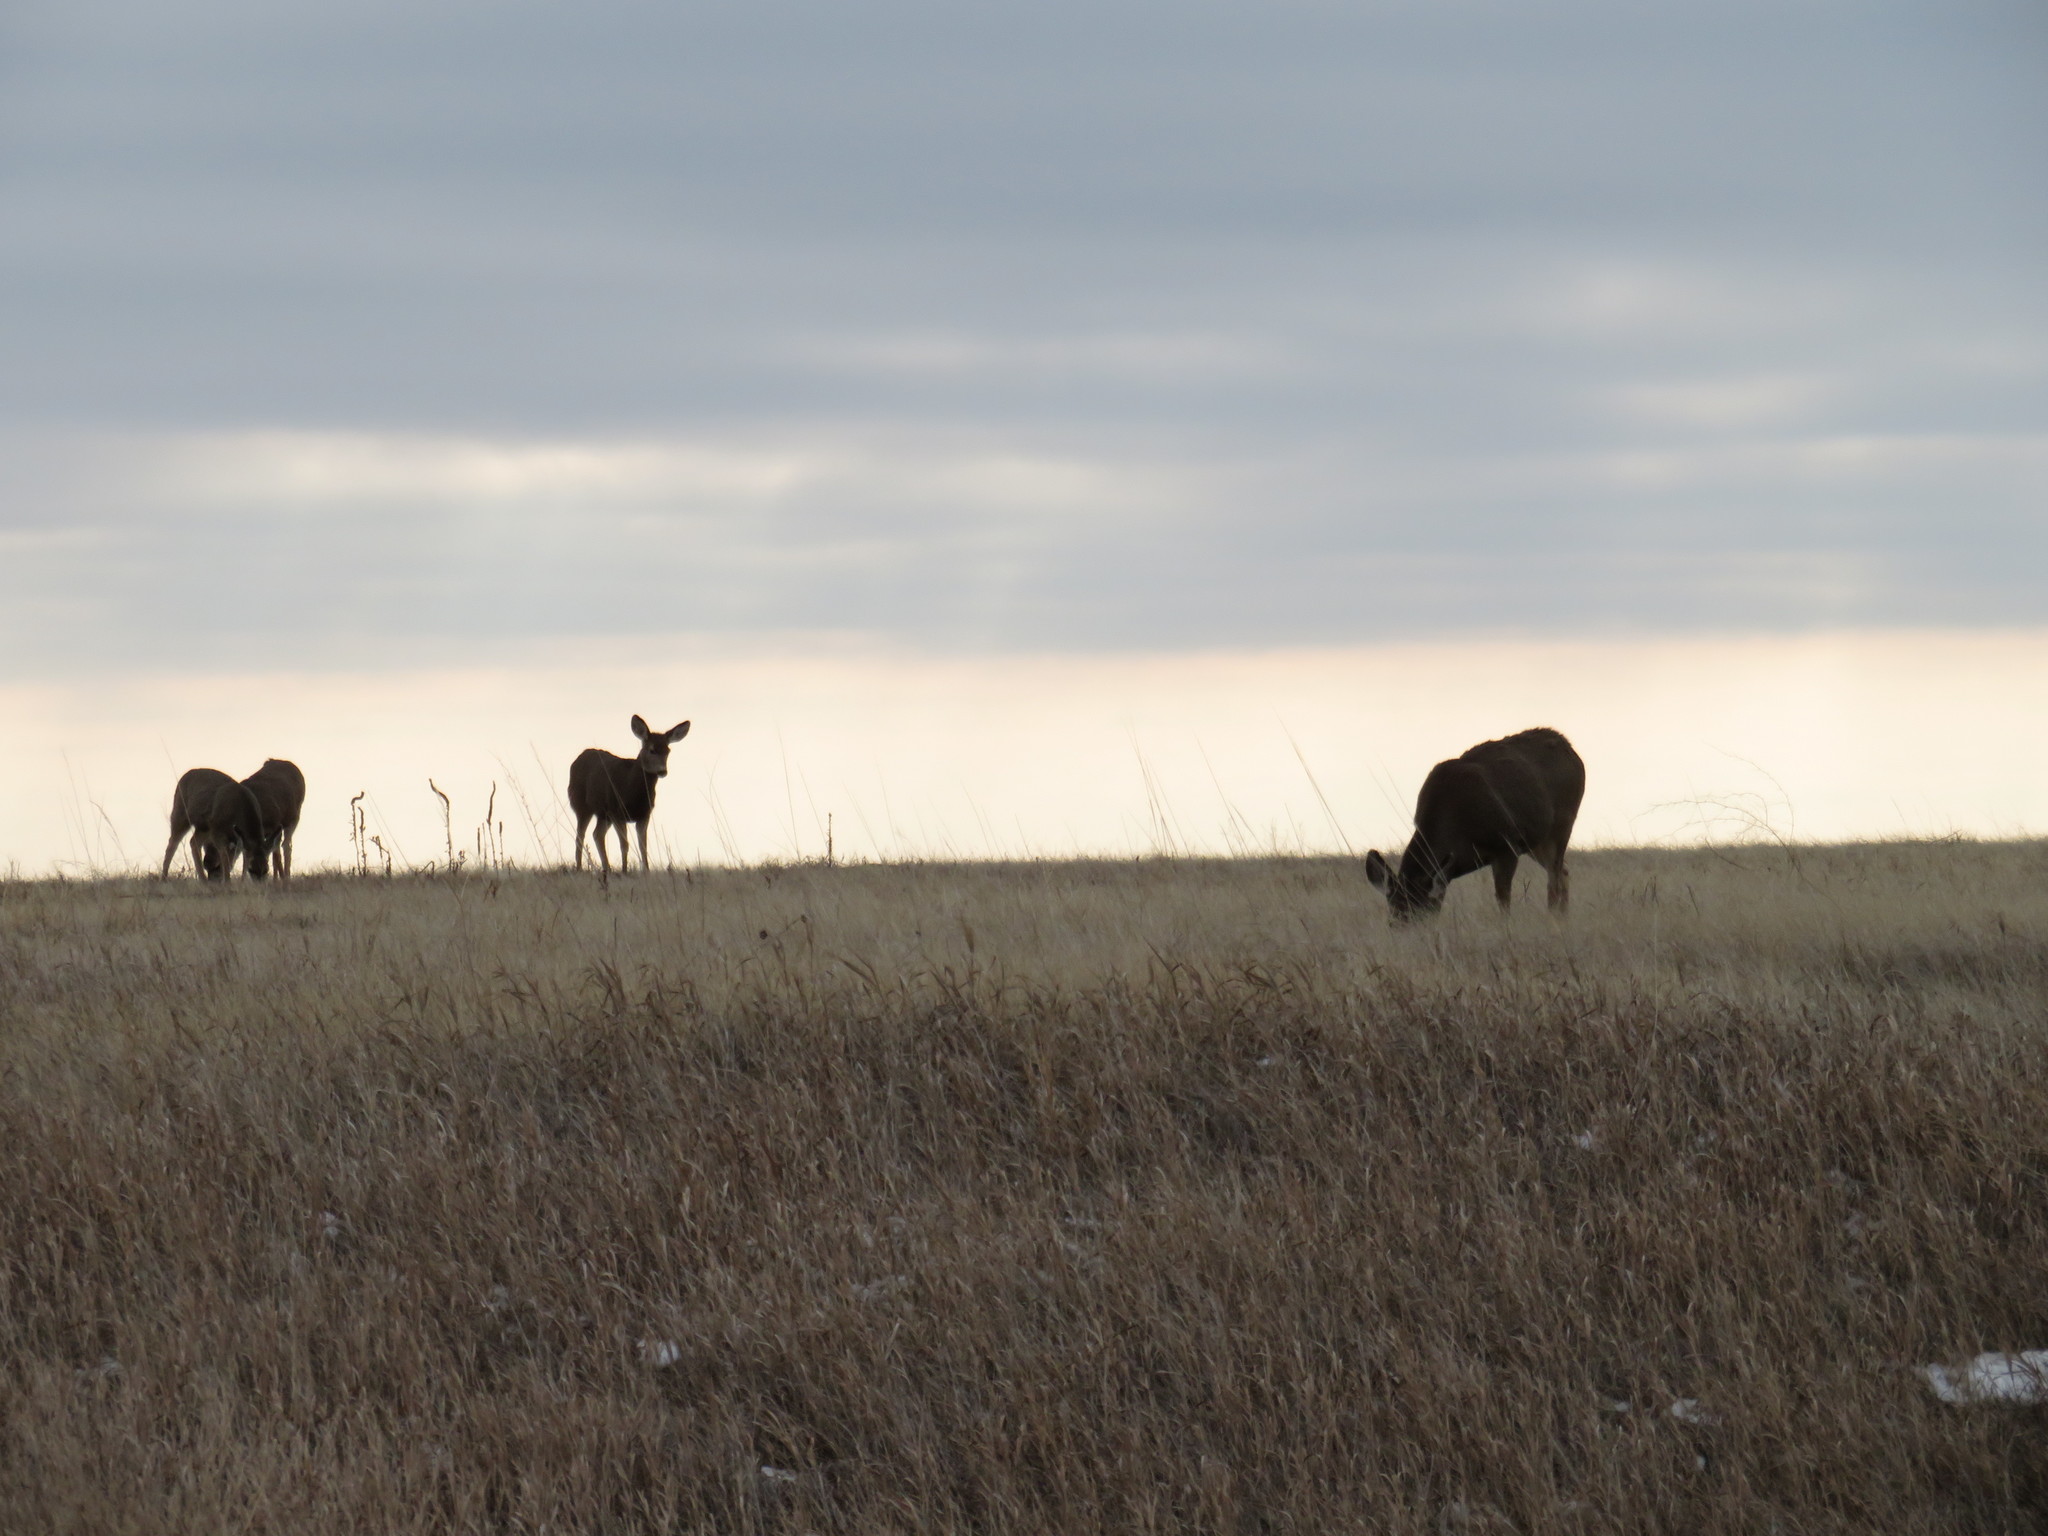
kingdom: Animalia
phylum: Chordata
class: Mammalia
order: Artiodactyla
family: Cervidae
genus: Odocoileus
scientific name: Odocoileus hemionus
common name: Mule deer
